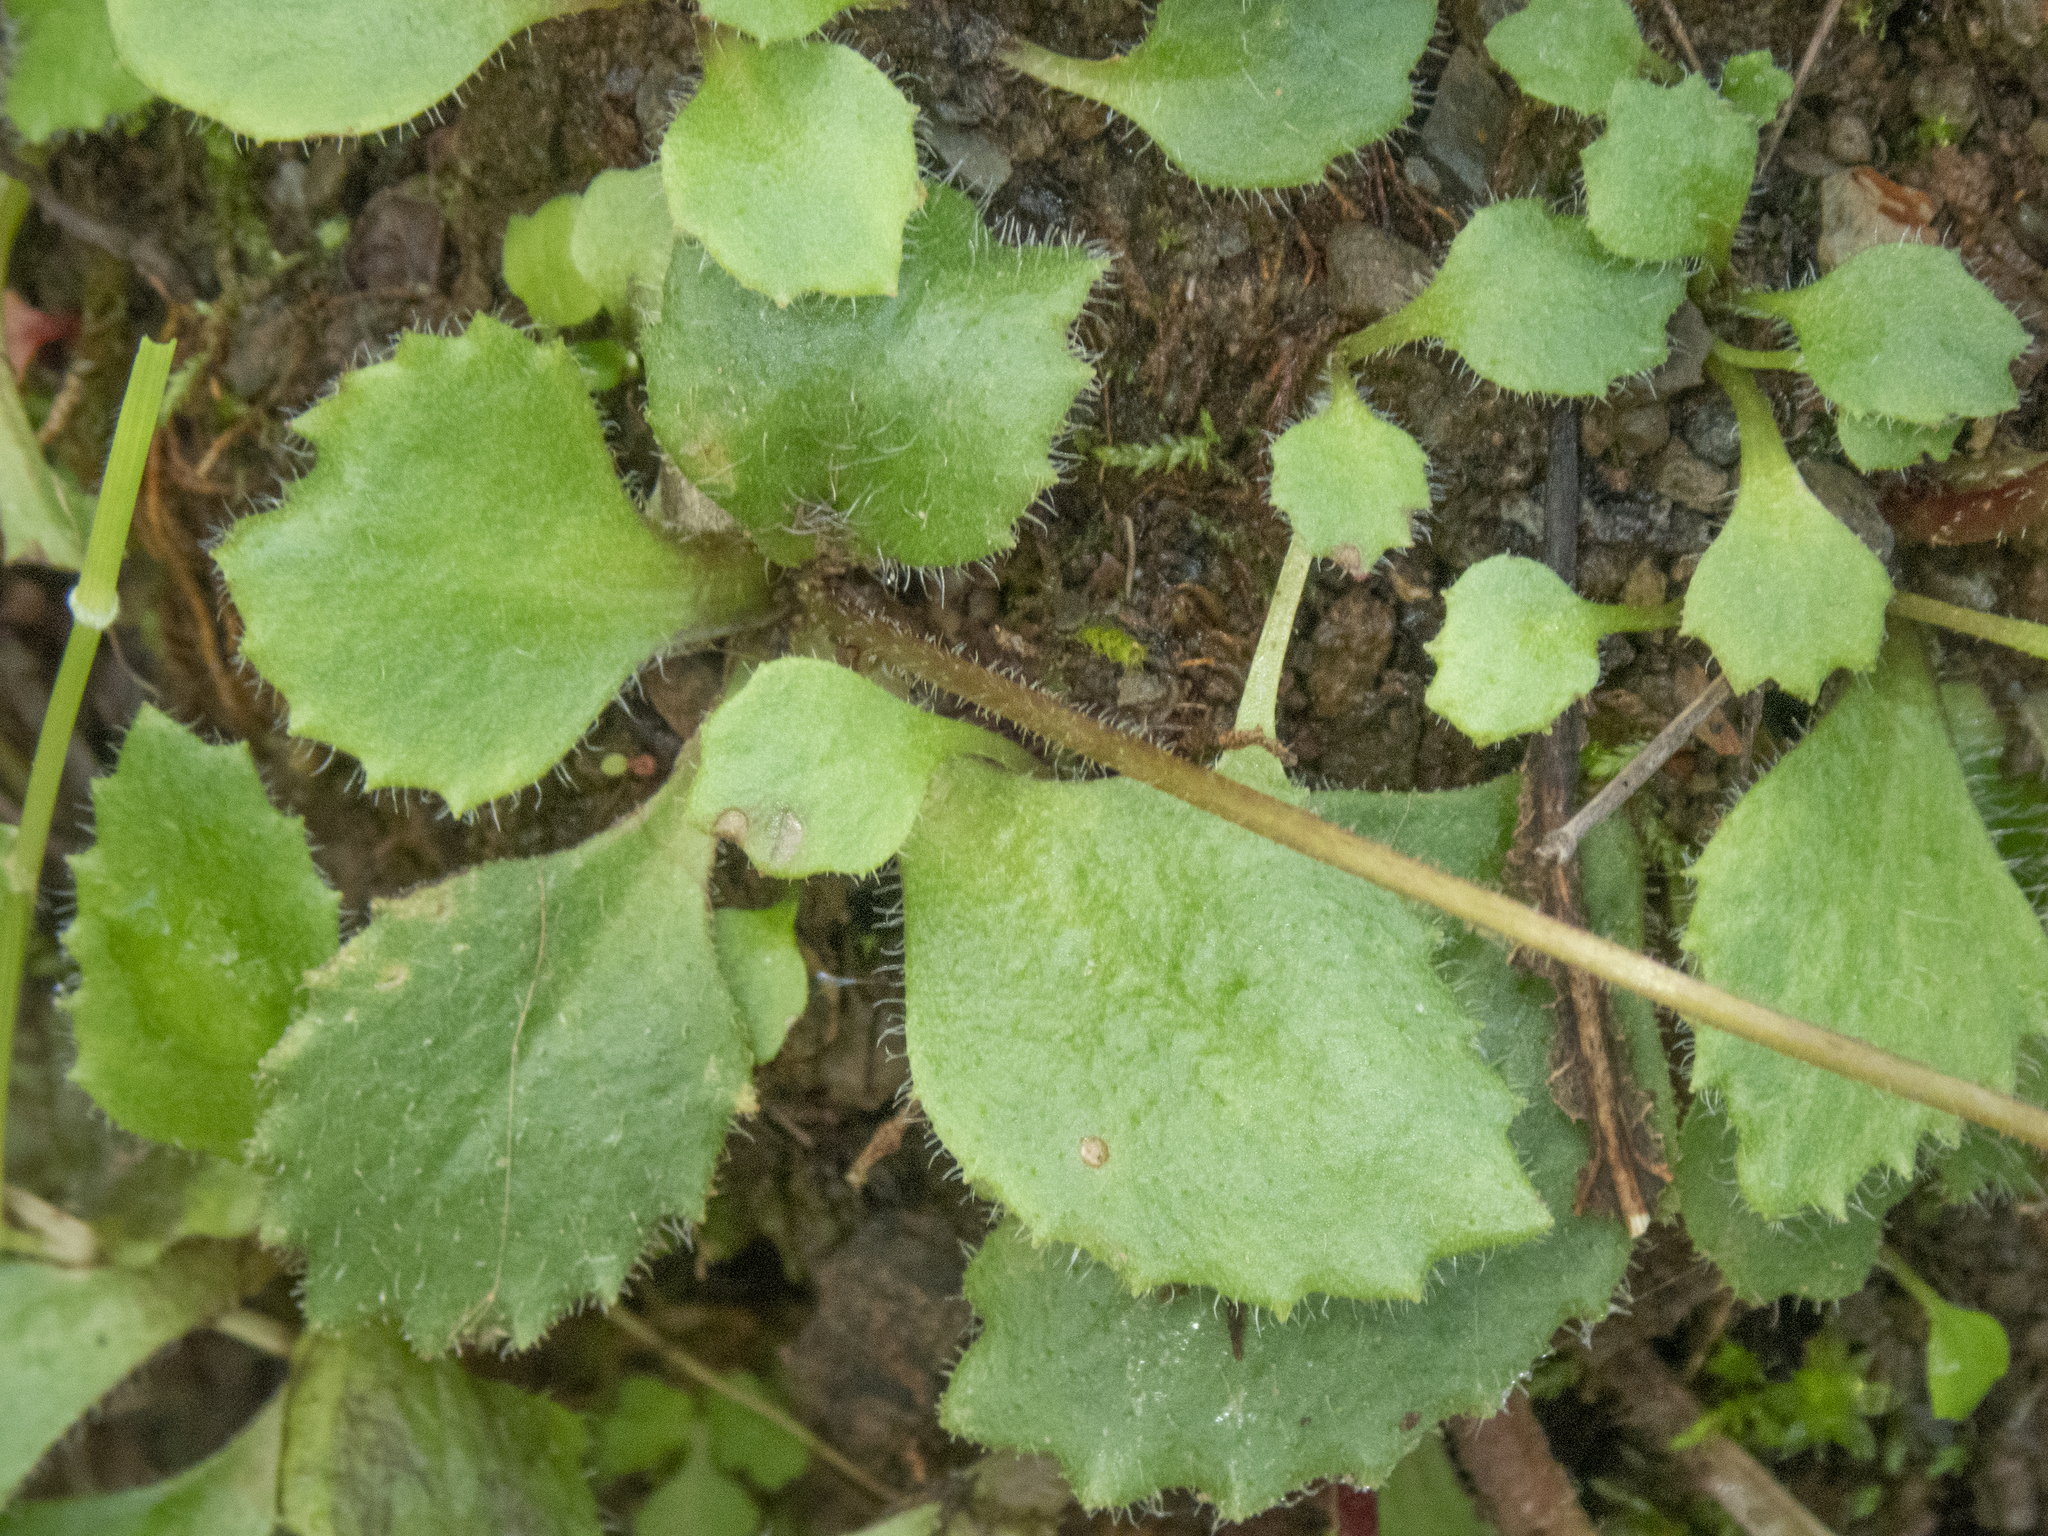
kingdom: Plantae
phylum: Tracheophyta
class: Magnoliopsida
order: Saxifragales
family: Saxifragaceae
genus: Micranthes
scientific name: Micranthes californica
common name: California saxifrage
